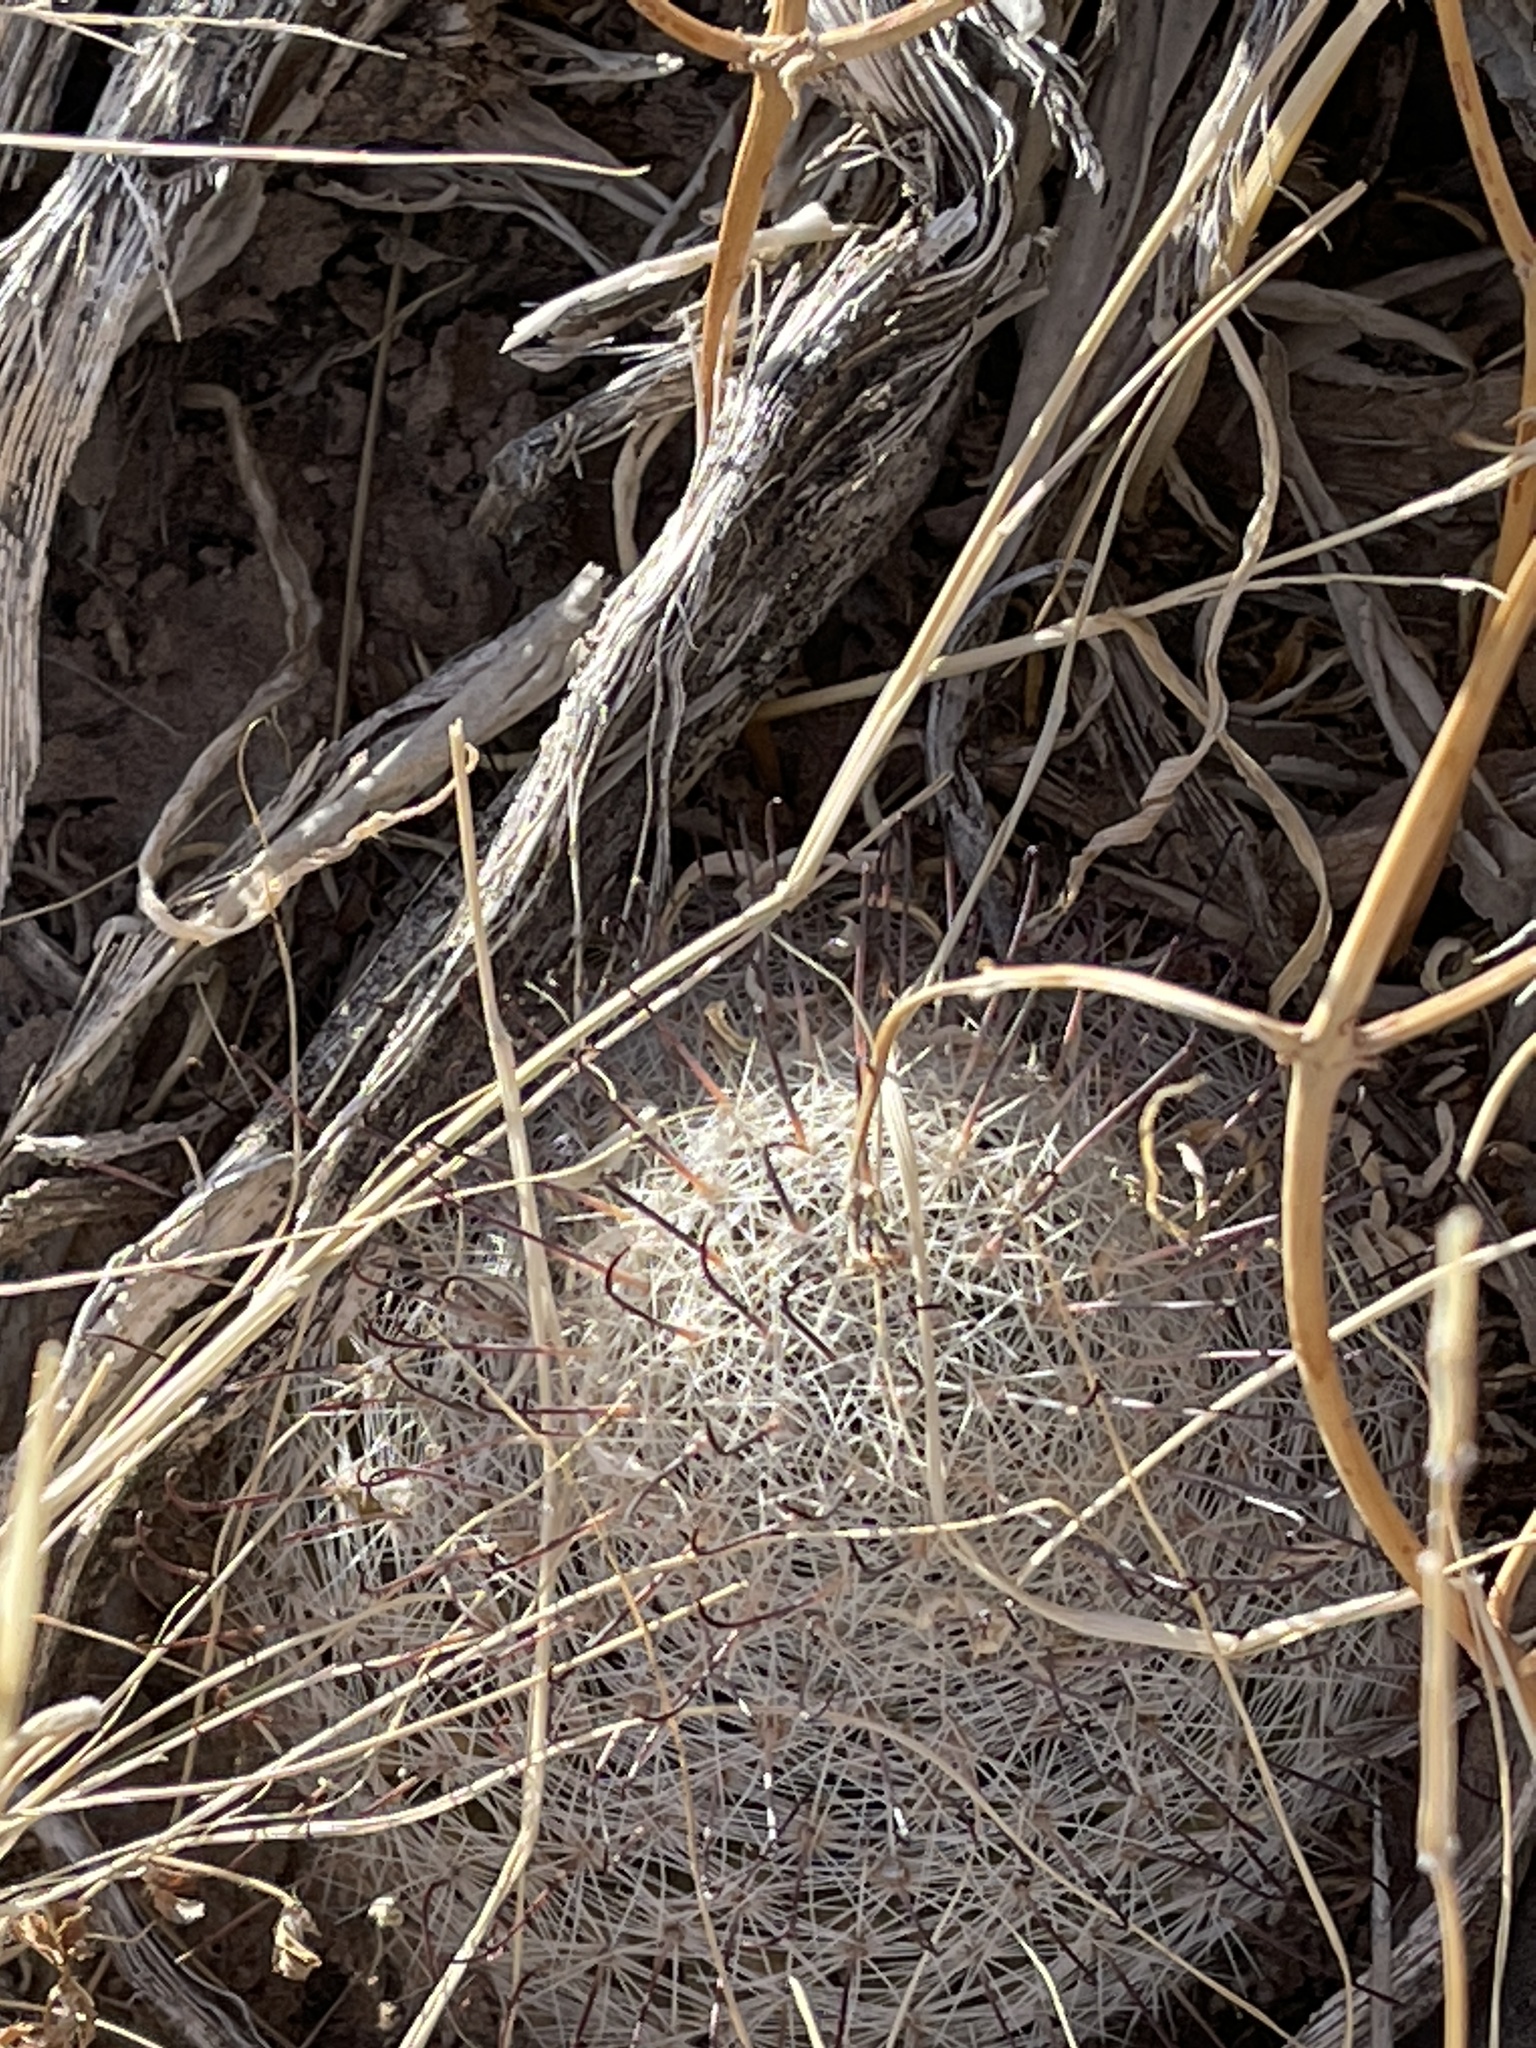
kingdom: Plantae
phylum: Tracheophyta
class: Magnoliopsida
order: Caryophyllales
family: Cactaceae
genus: Cochemiea
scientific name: Cochemiea grahamii
